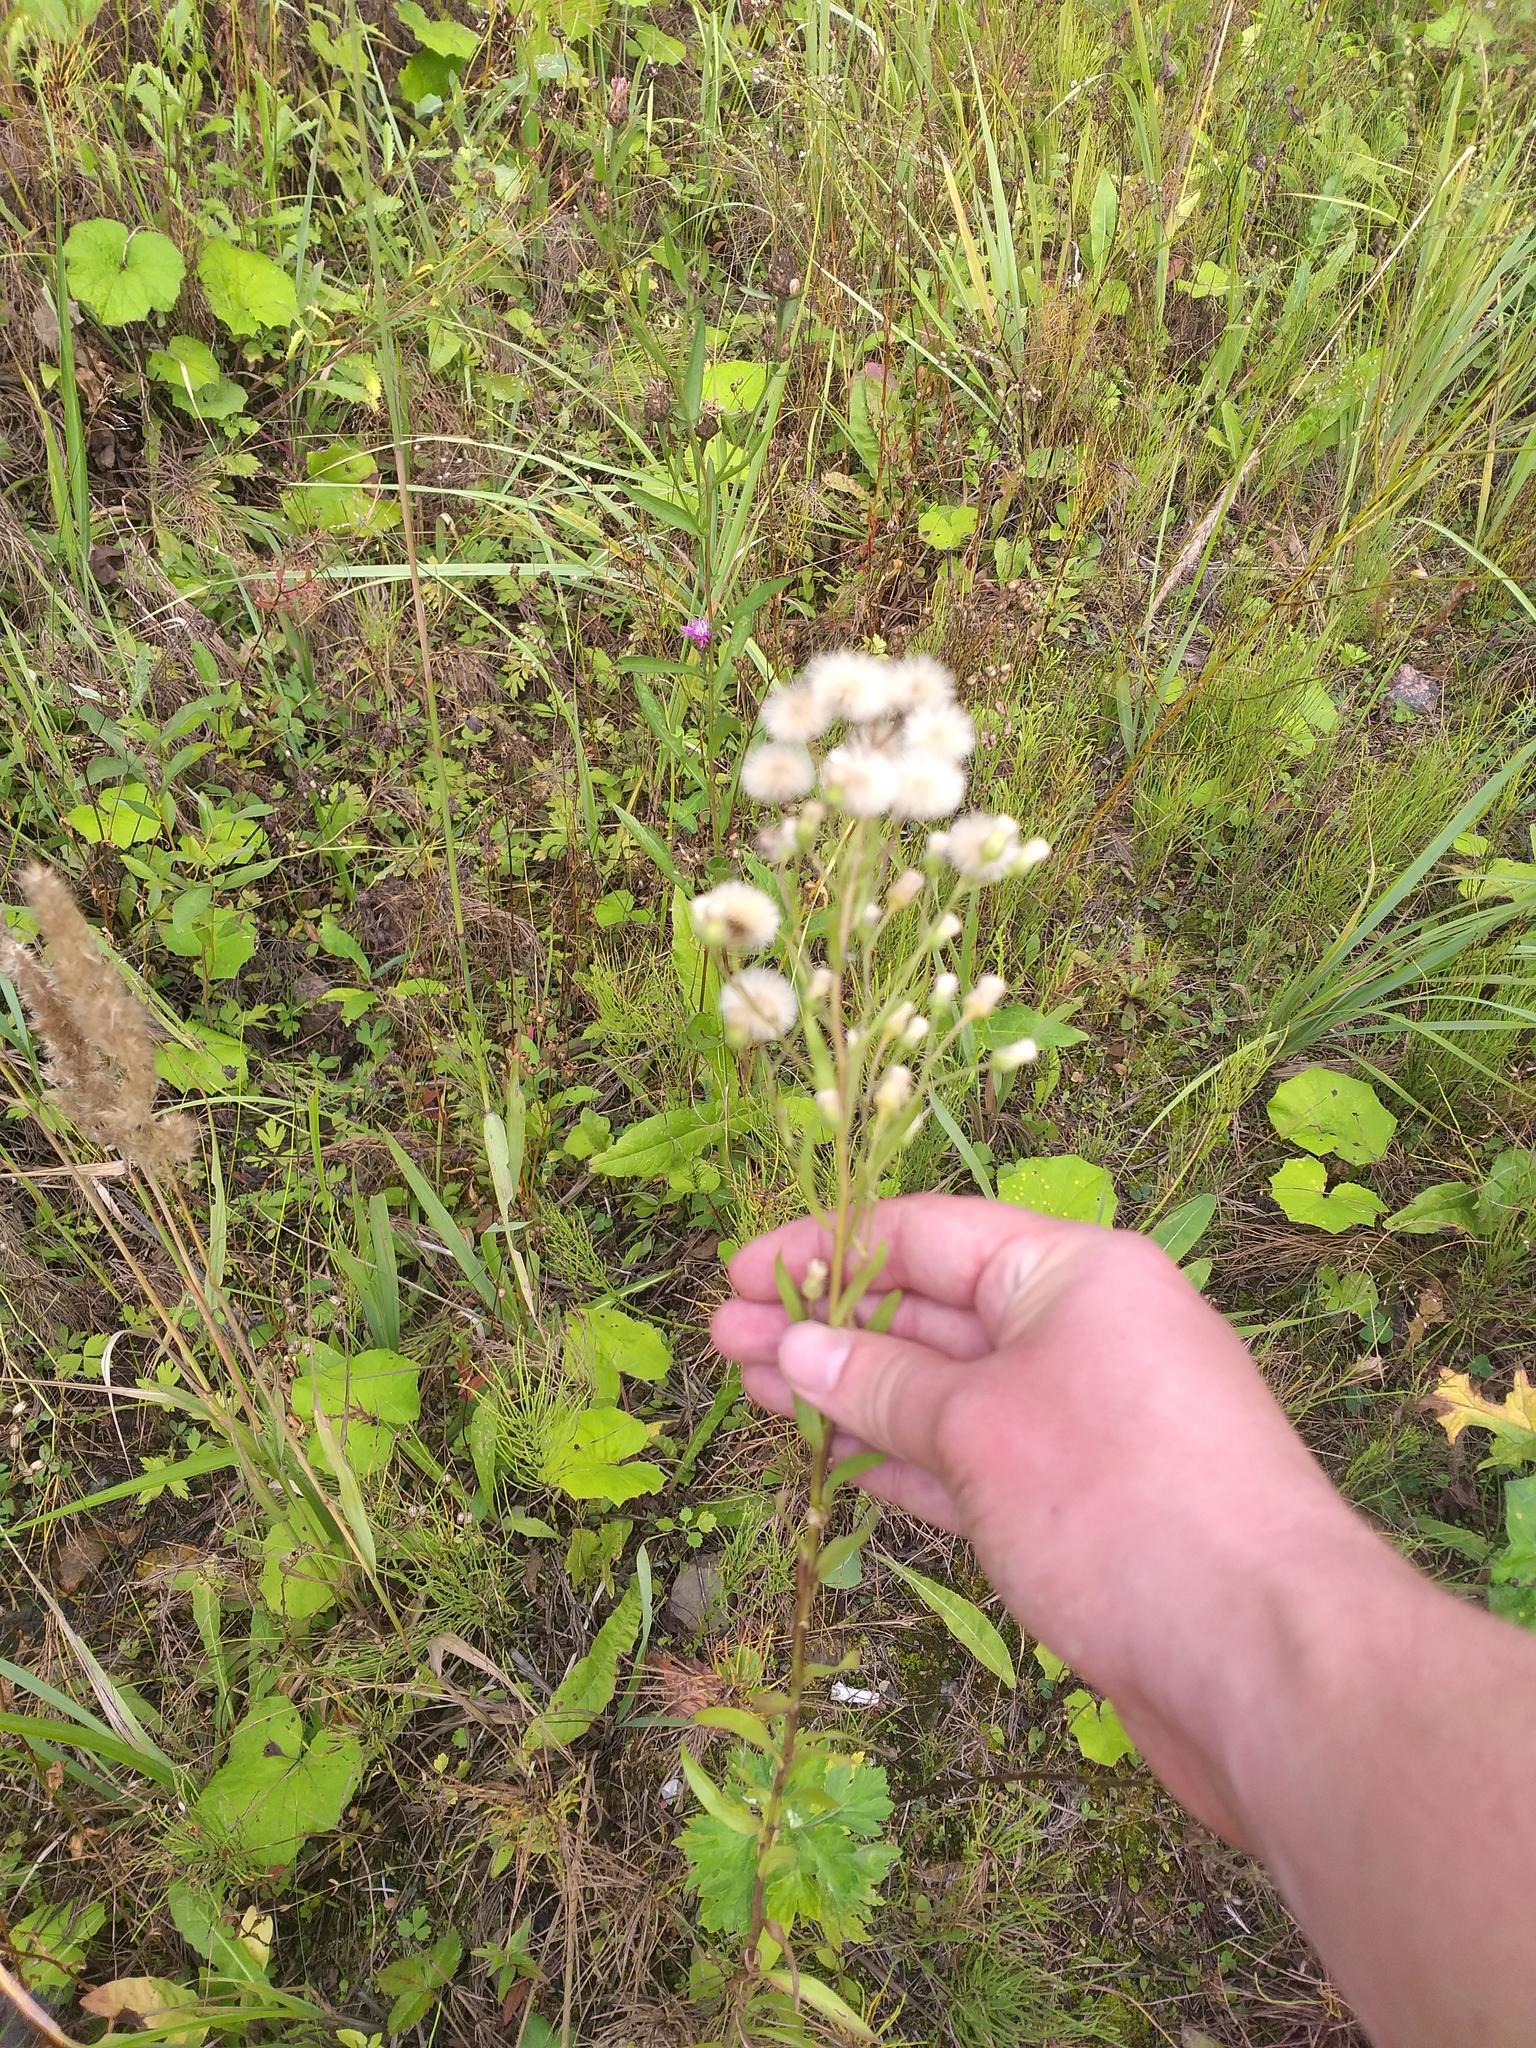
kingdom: Plantae
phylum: Tracheophyta
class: Magnoliopsida
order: Asterales
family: Asteraceae
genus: Erigeron
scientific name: Erigeron acris
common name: Blue fleabane
